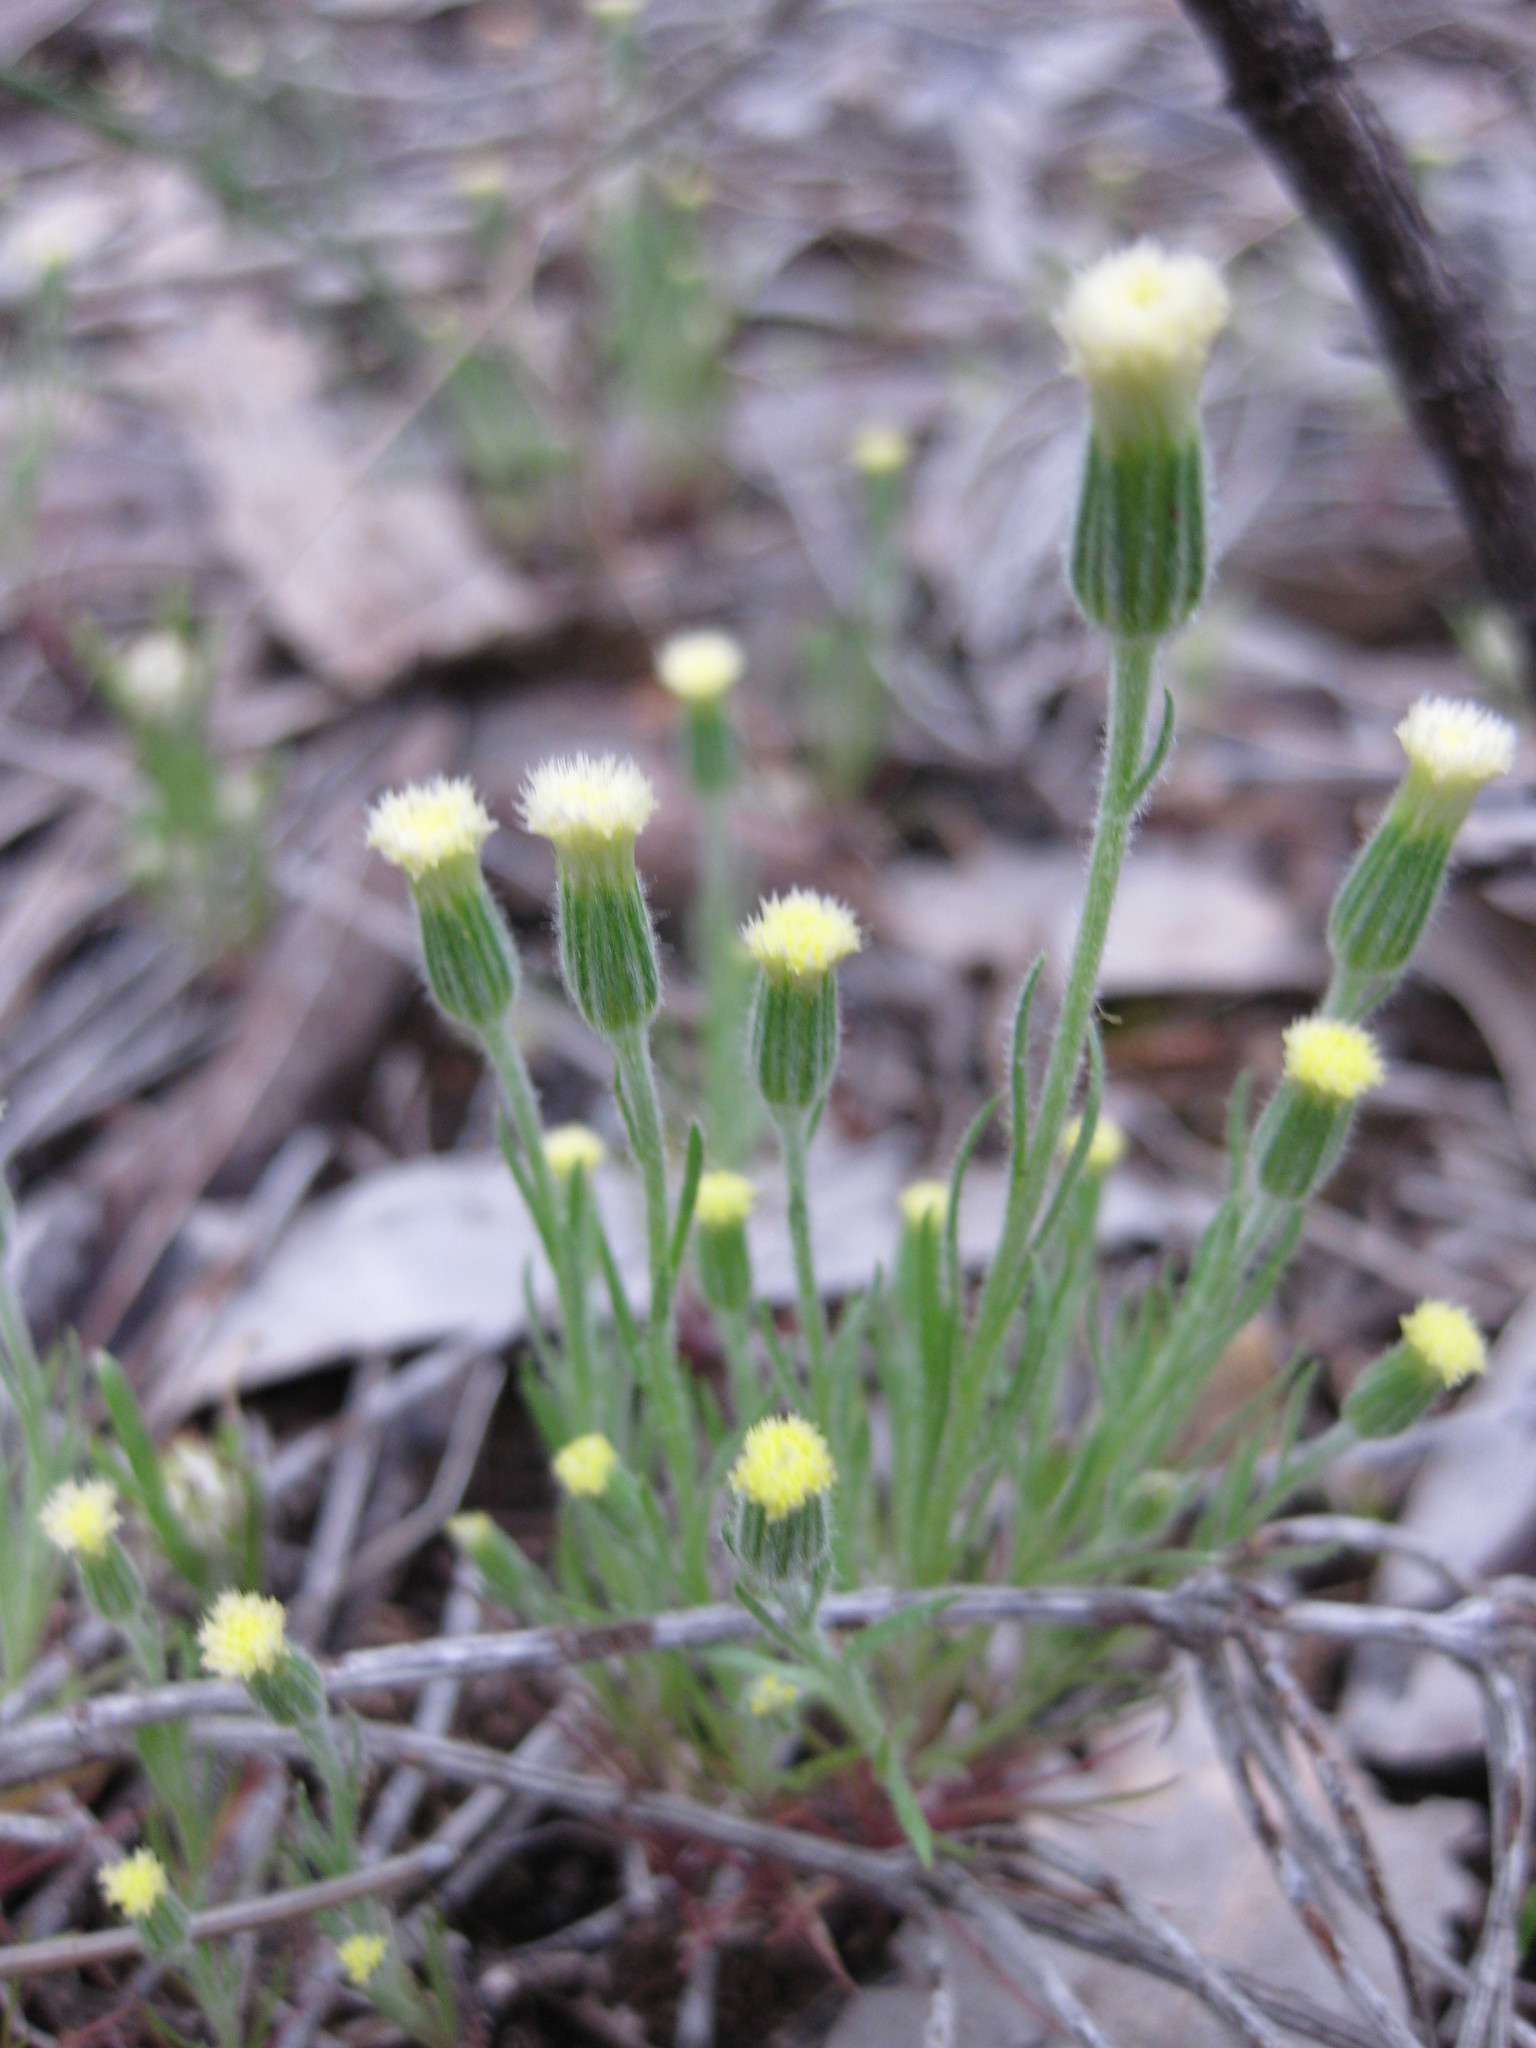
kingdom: Plantae
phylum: Tracheophyta
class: Magnoliopsida
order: Asterales
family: Asteraceae
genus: Millotia
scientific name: Millotia tenuifolia
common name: Soft millotia
